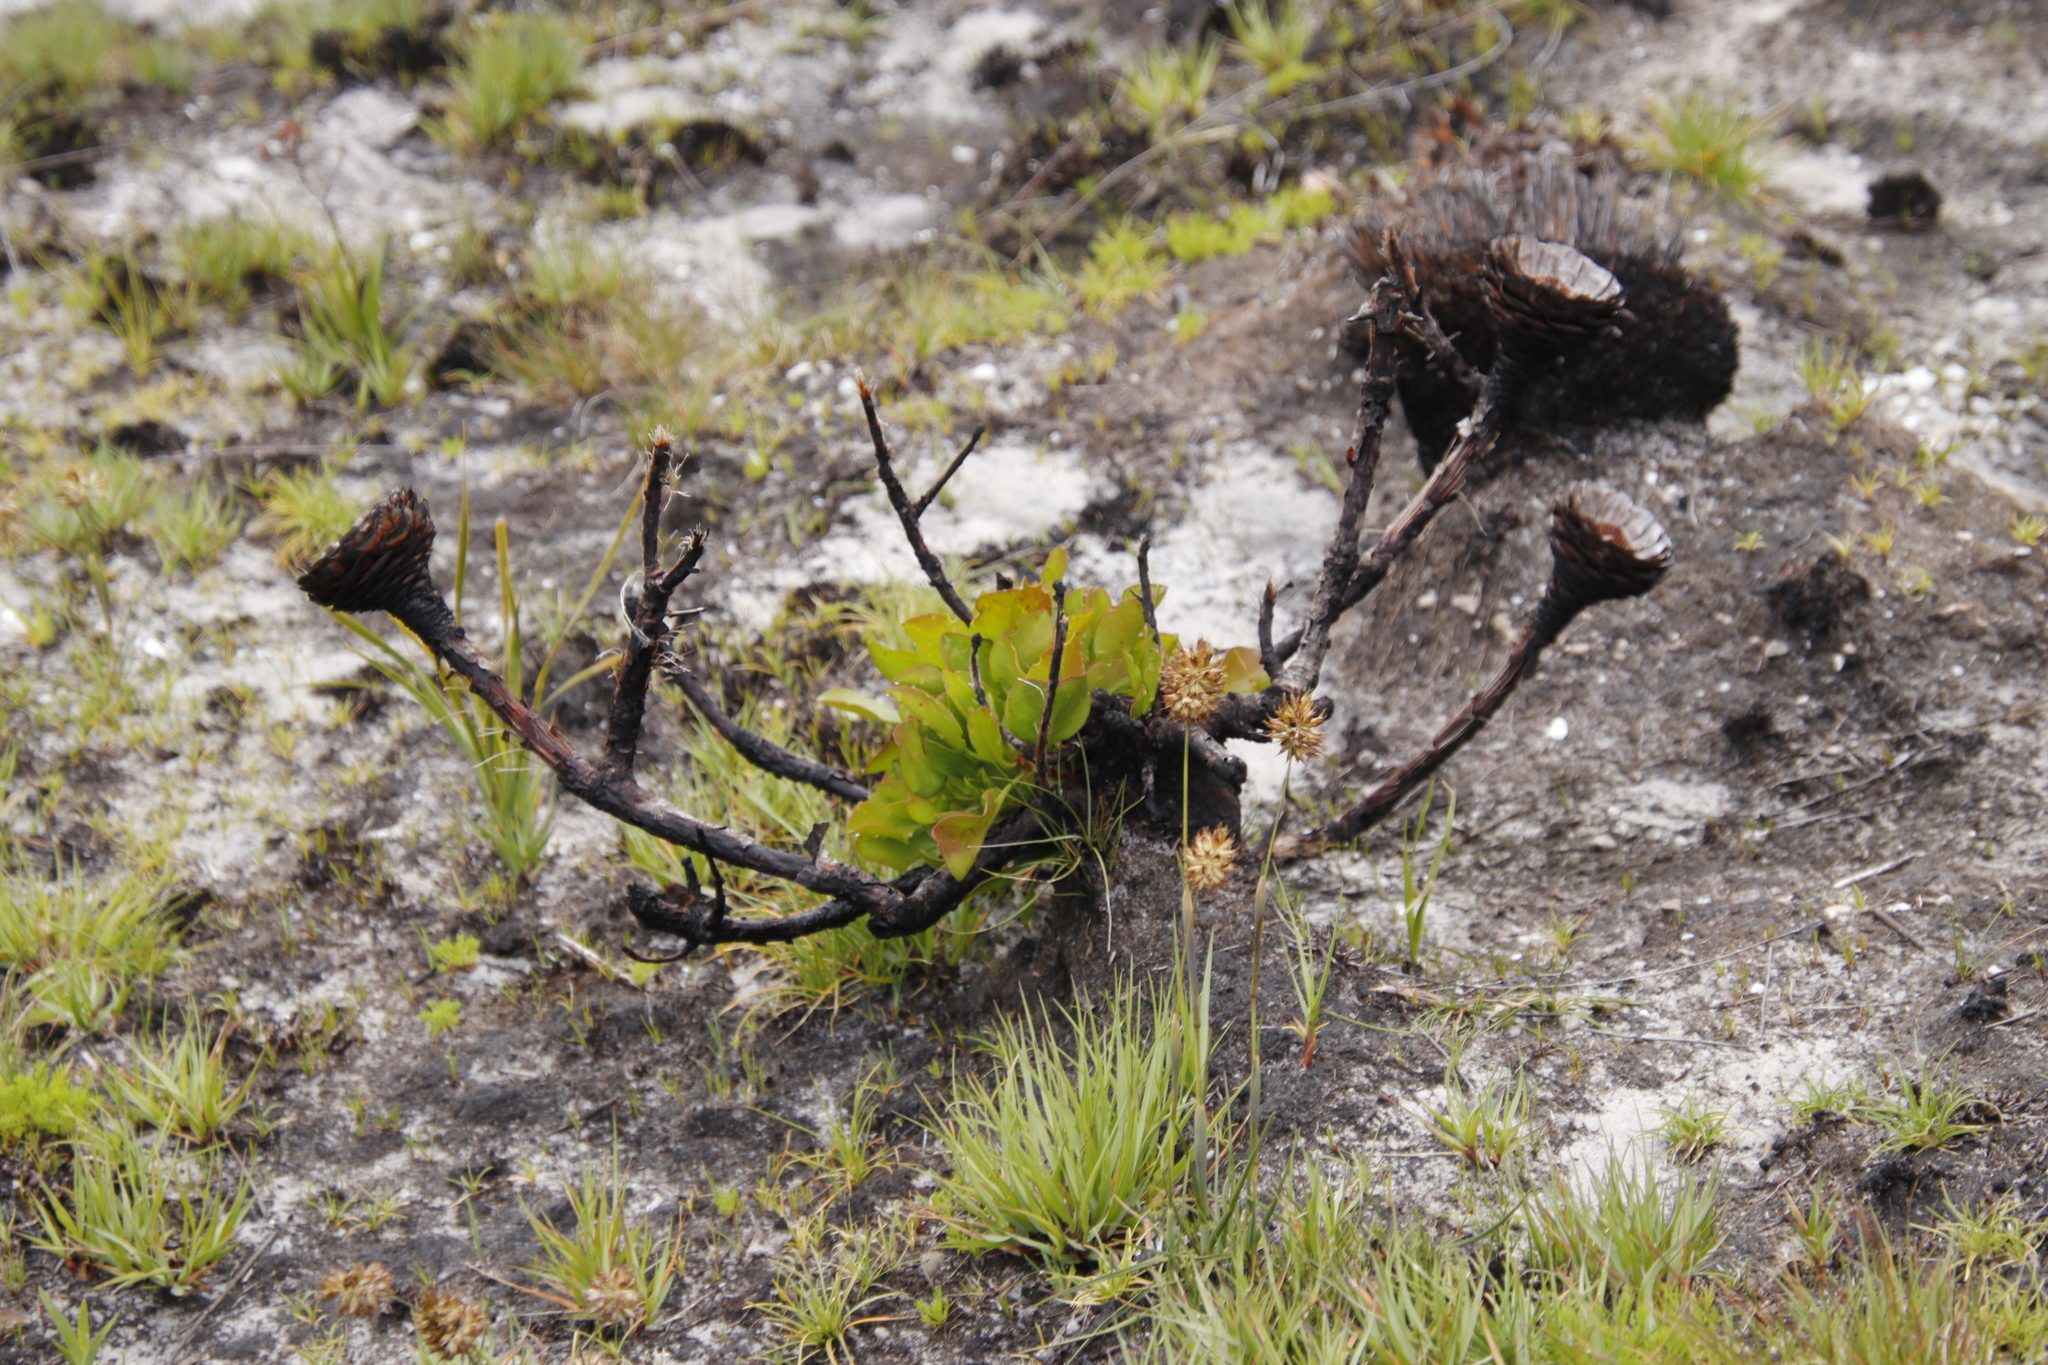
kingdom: Plantae
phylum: Tracheophyta
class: Magnoliopsida
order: Proteales
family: Proteaceae
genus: Protea
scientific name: Protea cynaroides
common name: King protea
